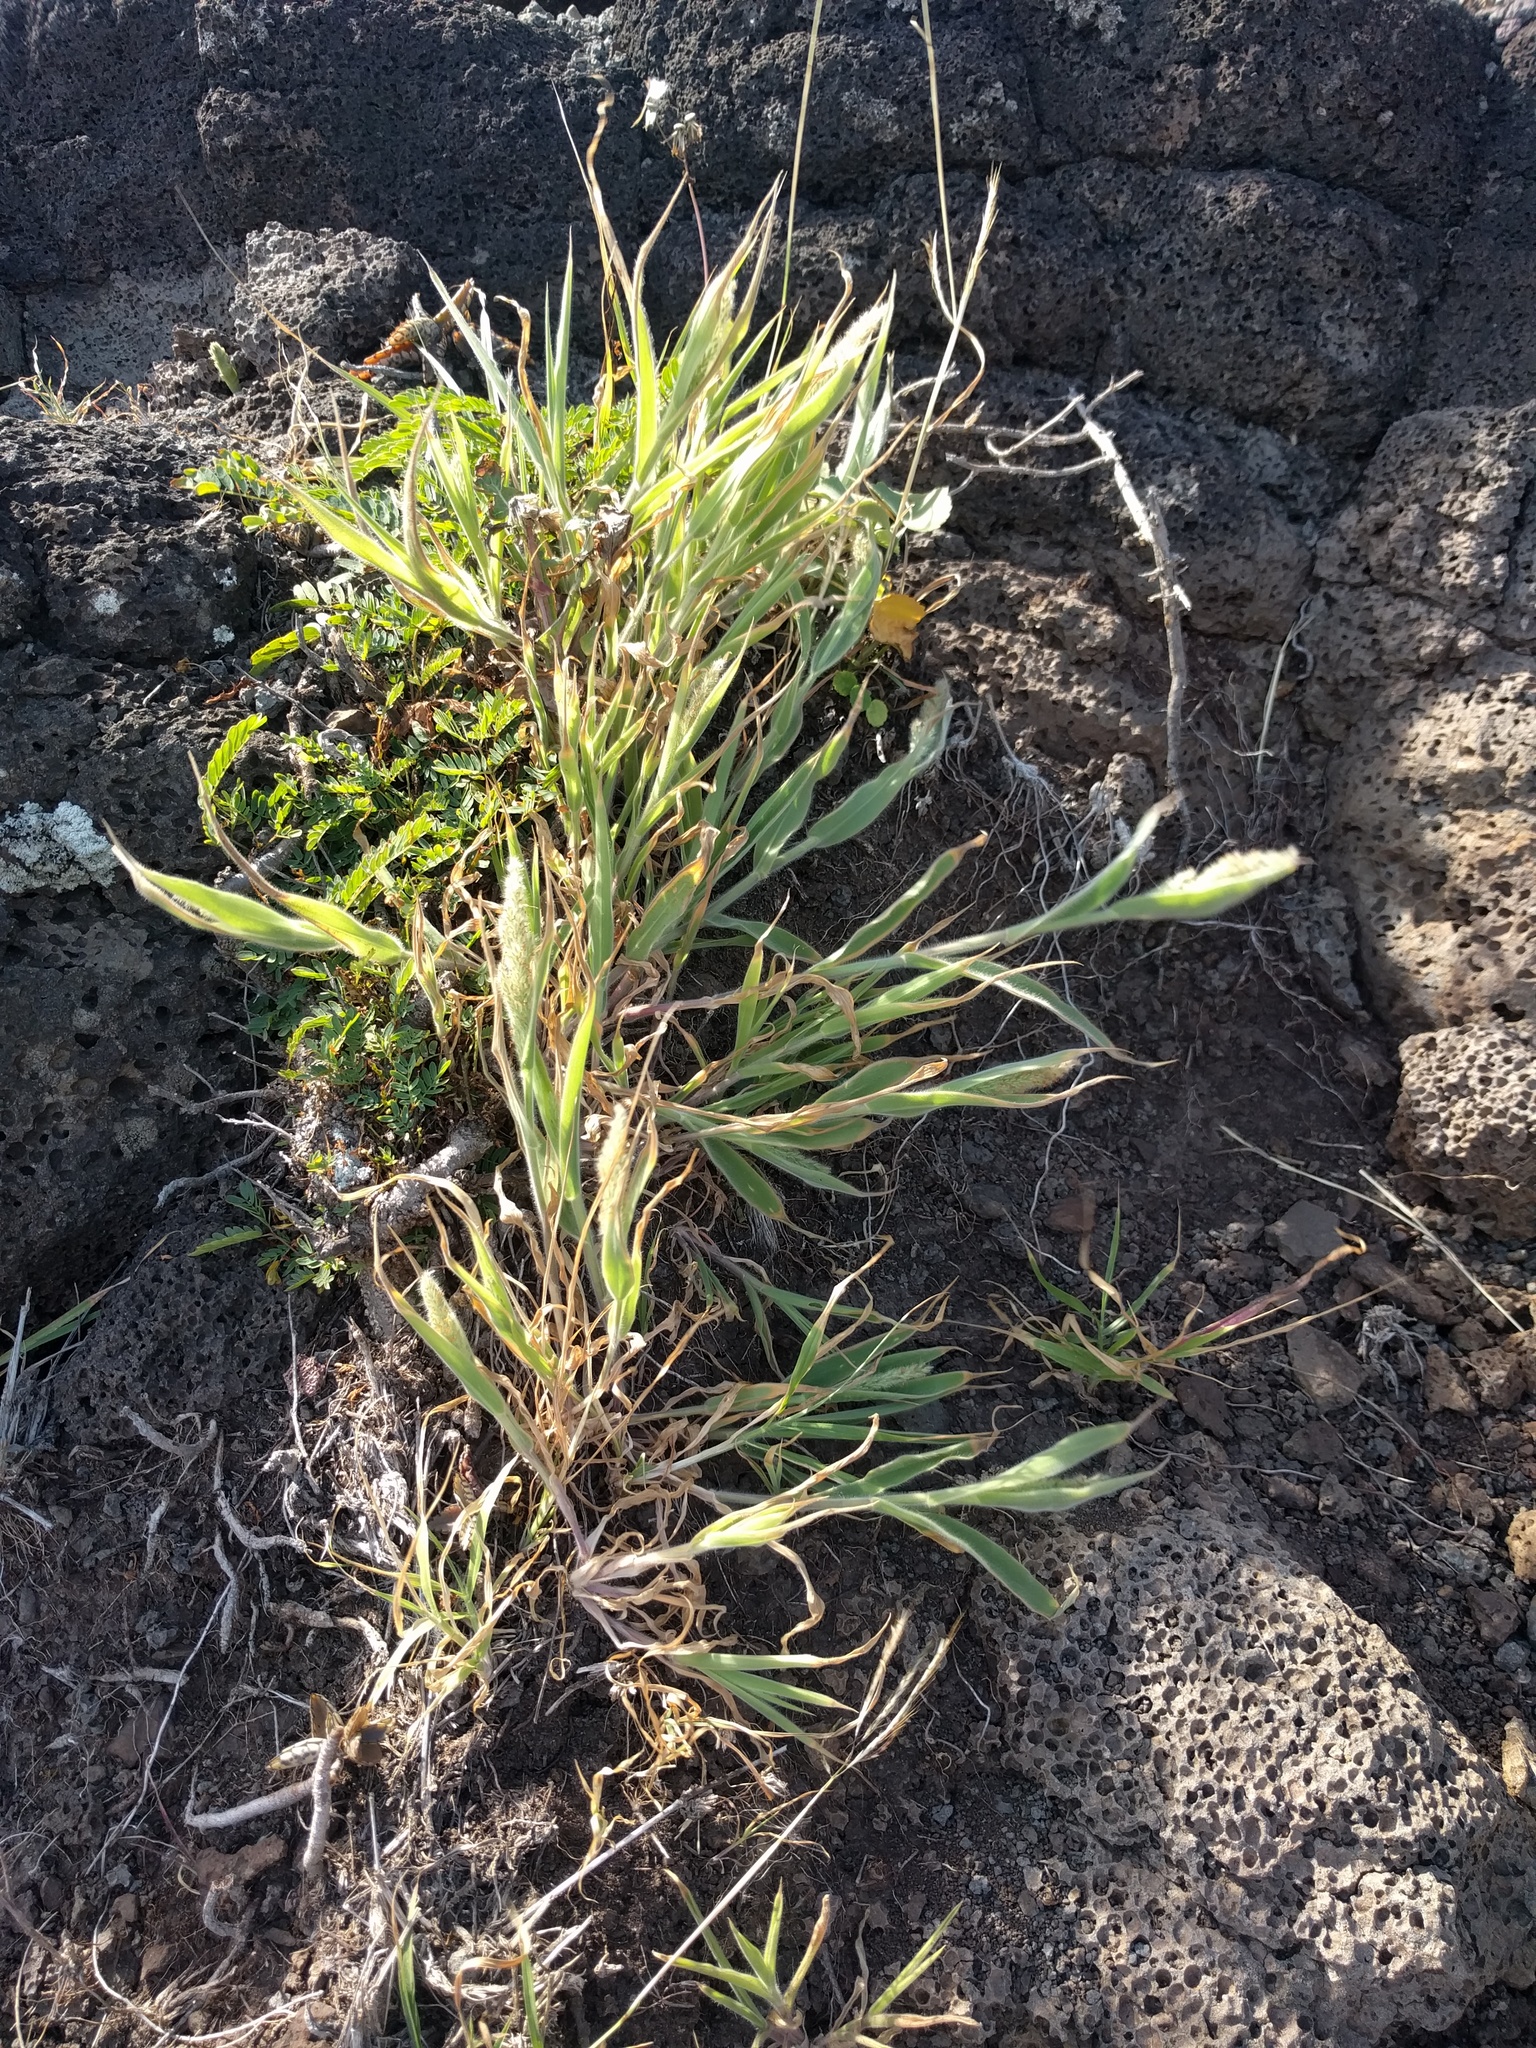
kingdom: Plantae
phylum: Tracheophyta
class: Liliopsida
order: Poales
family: Poaceae
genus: Panicum
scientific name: Panicum torridum
